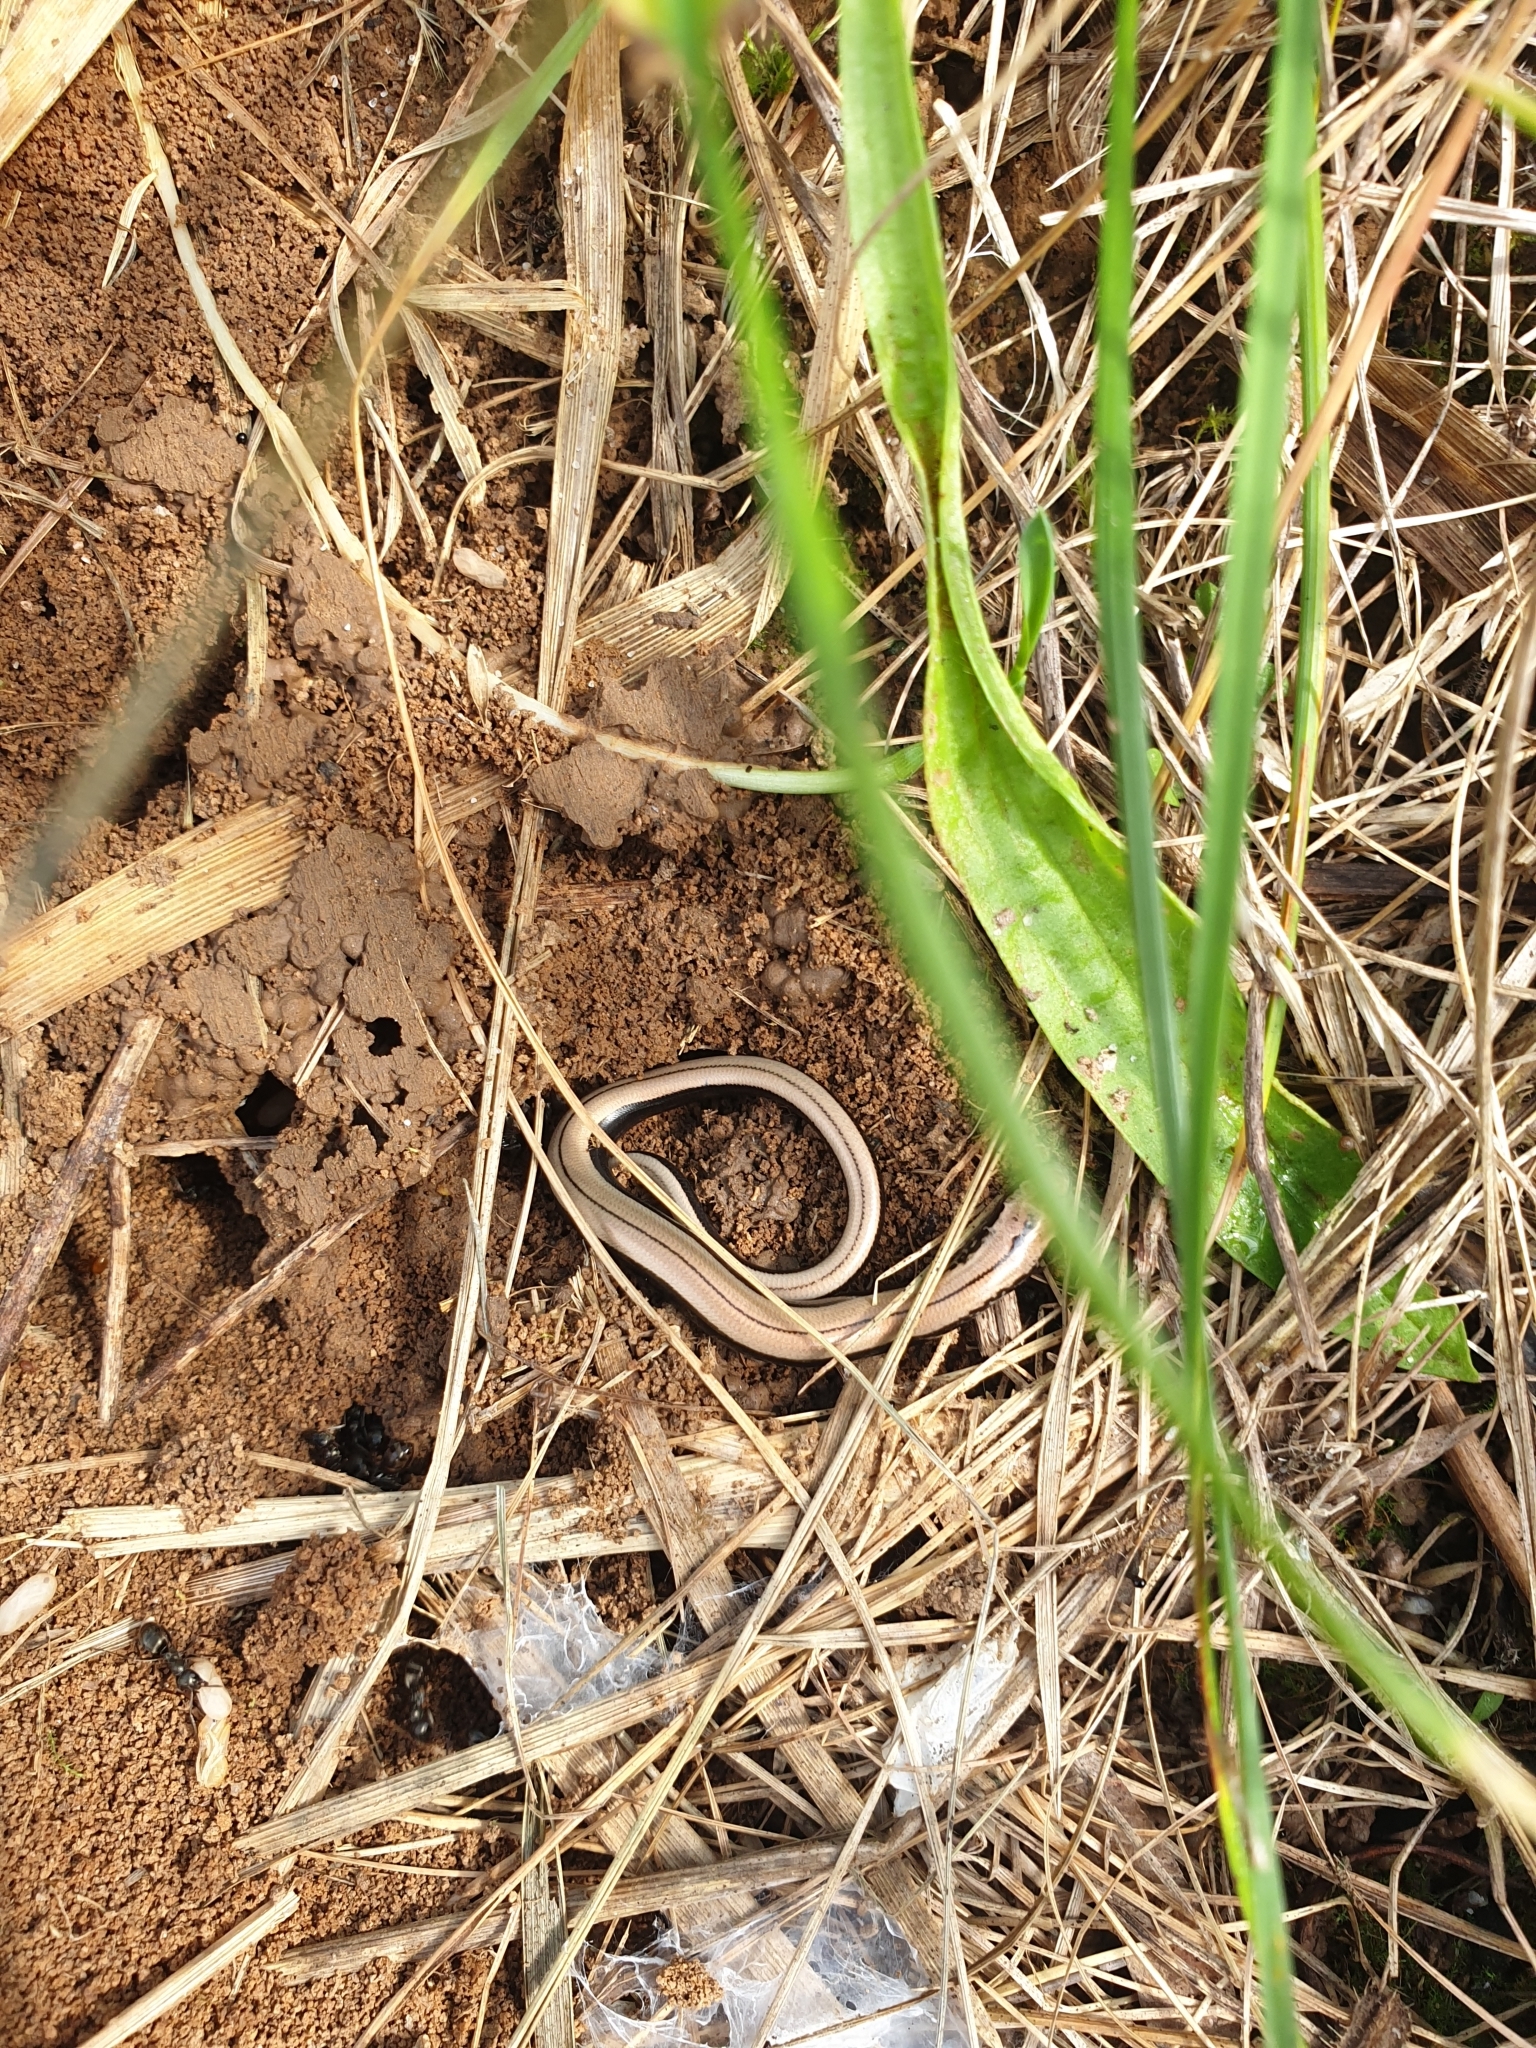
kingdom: Animalia
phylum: Chordata
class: Squamata
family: Anguidae
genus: Anguis
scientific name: Anguis fragilis
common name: Slow worm
